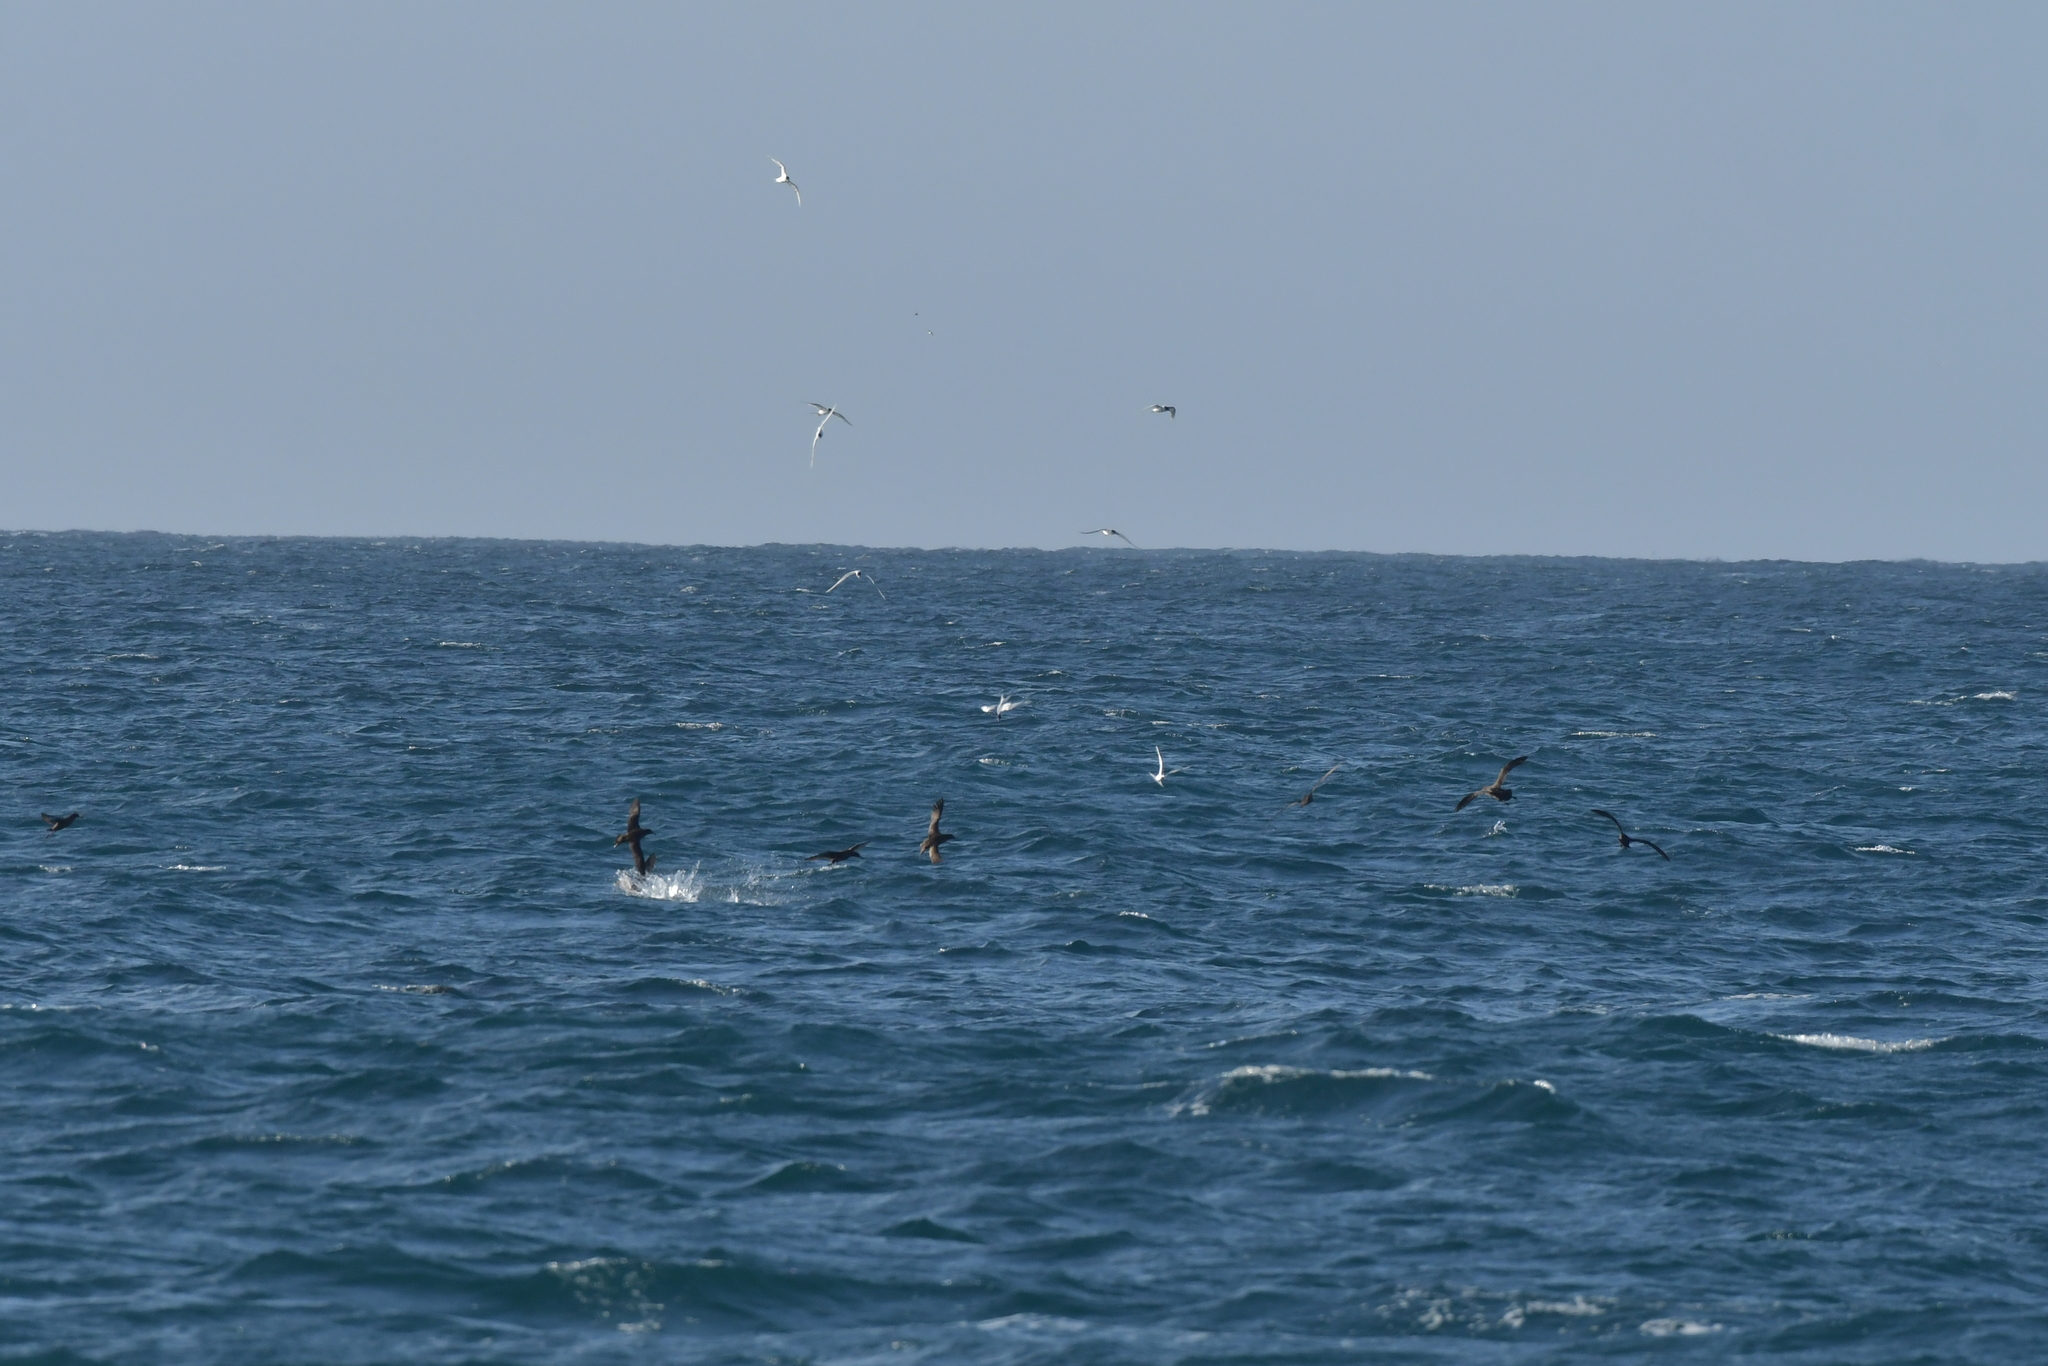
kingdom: Animalia
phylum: Chordata
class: Aves
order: Procellariiformes
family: Procellariidae
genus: Puffinus
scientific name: Puffinus griseus
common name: Sooty shearwater
